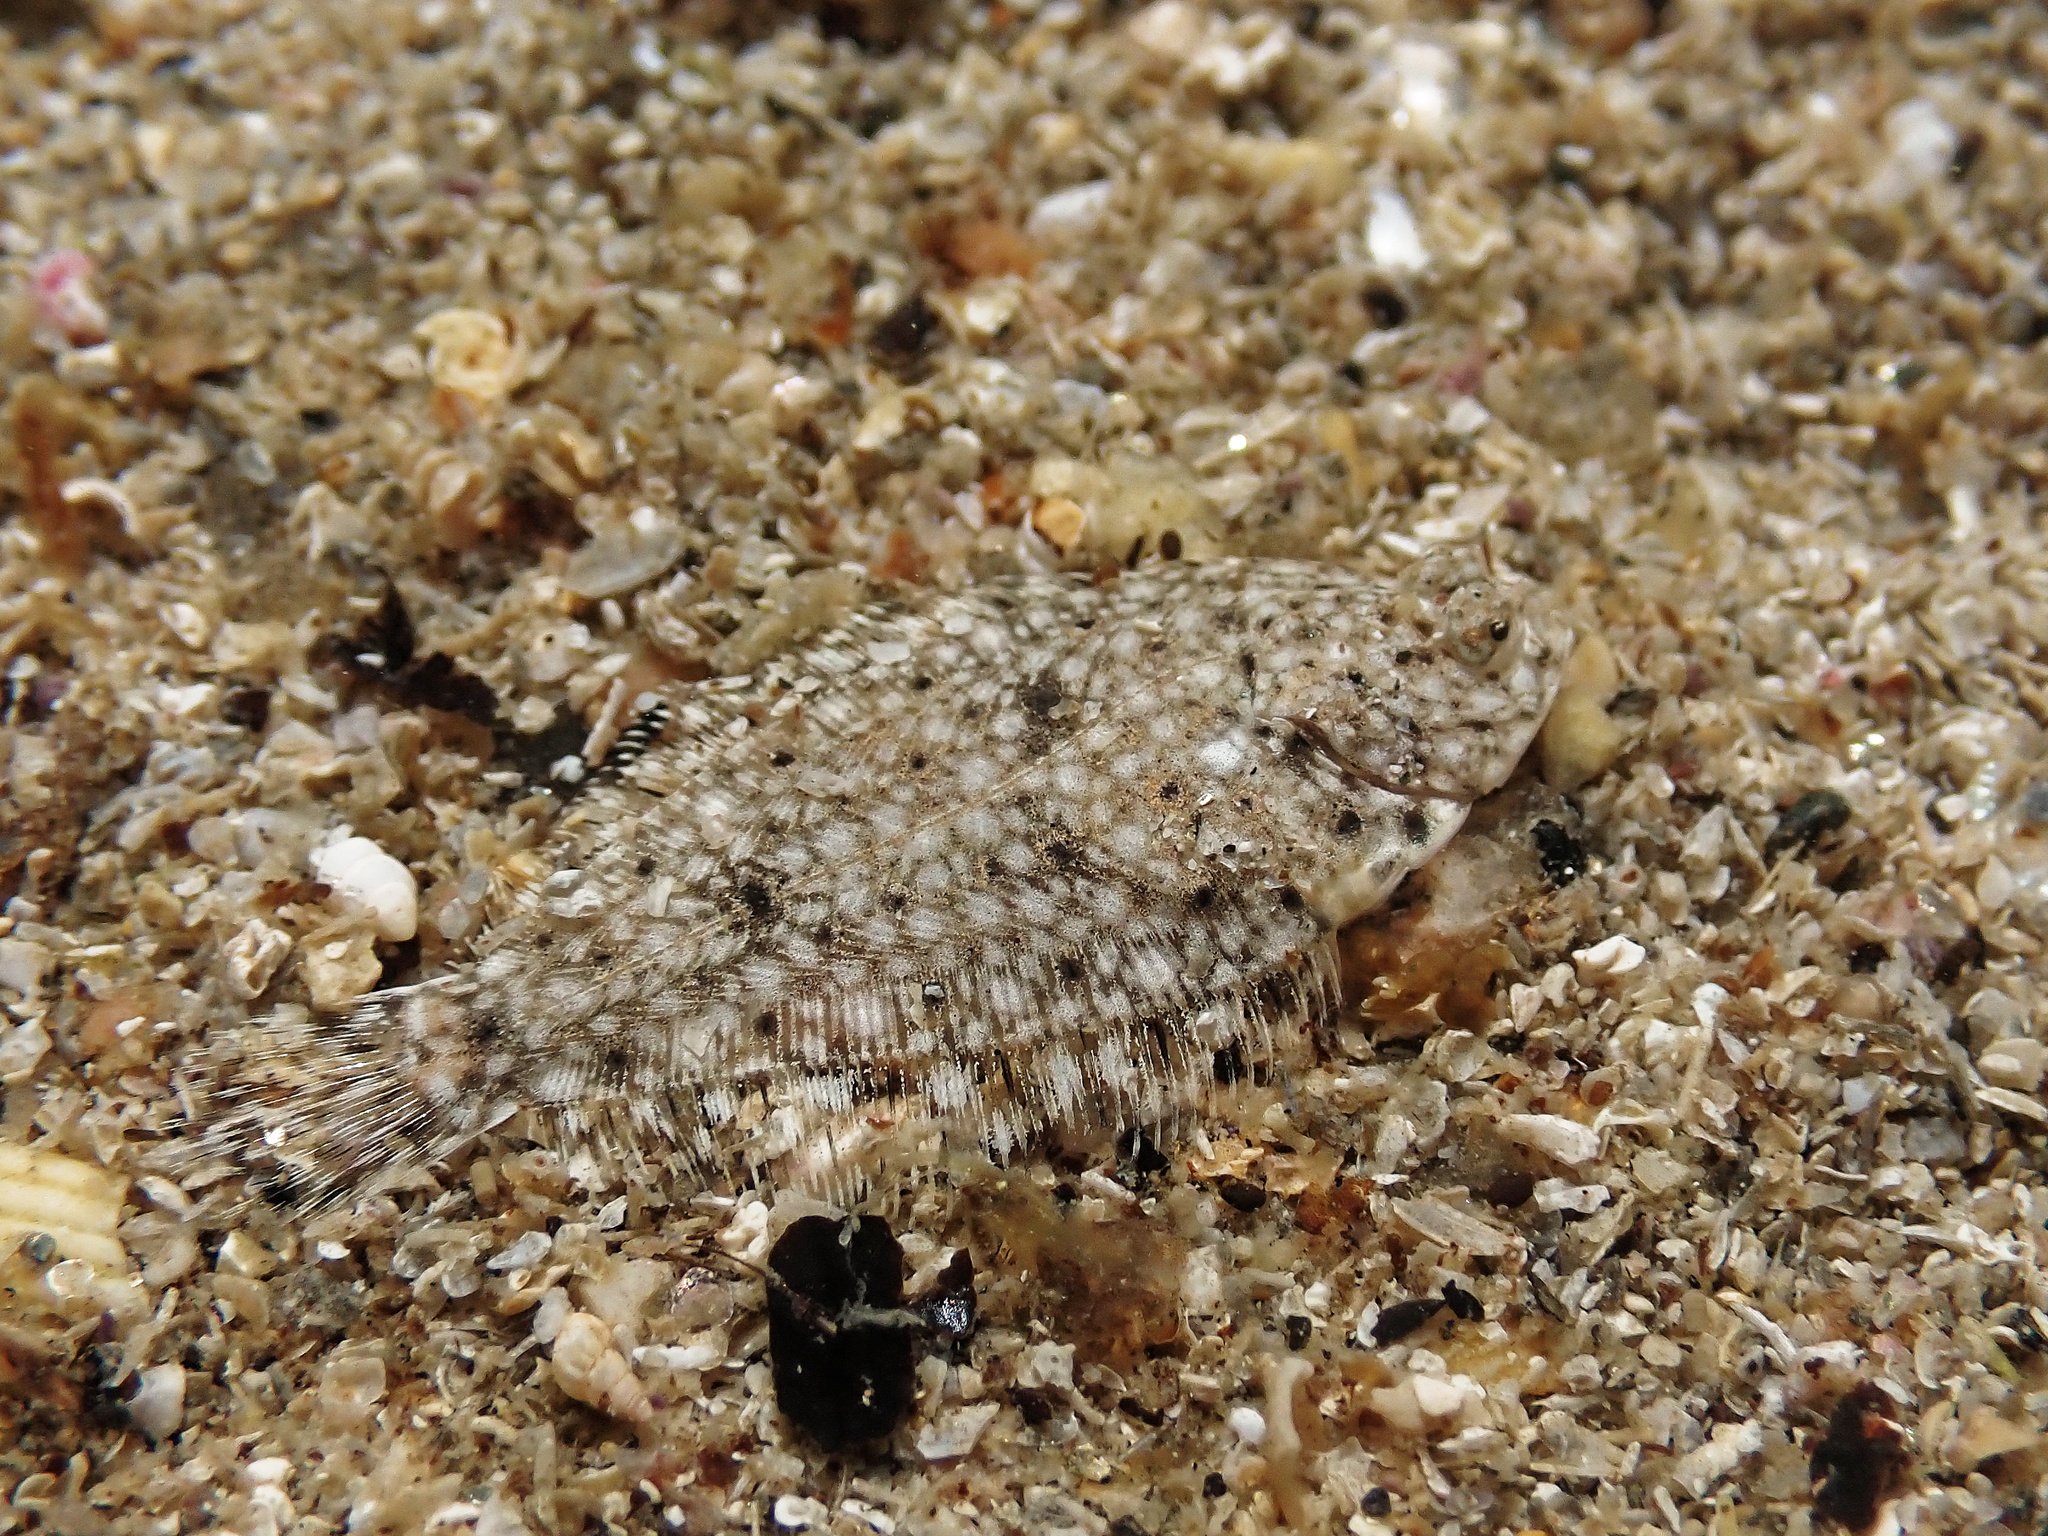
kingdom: Animalia
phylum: Chordata
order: Pleuronectiformes
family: Pleuronectidae
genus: Pleuronectes
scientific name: Pleuronectes platessa
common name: Plaice
